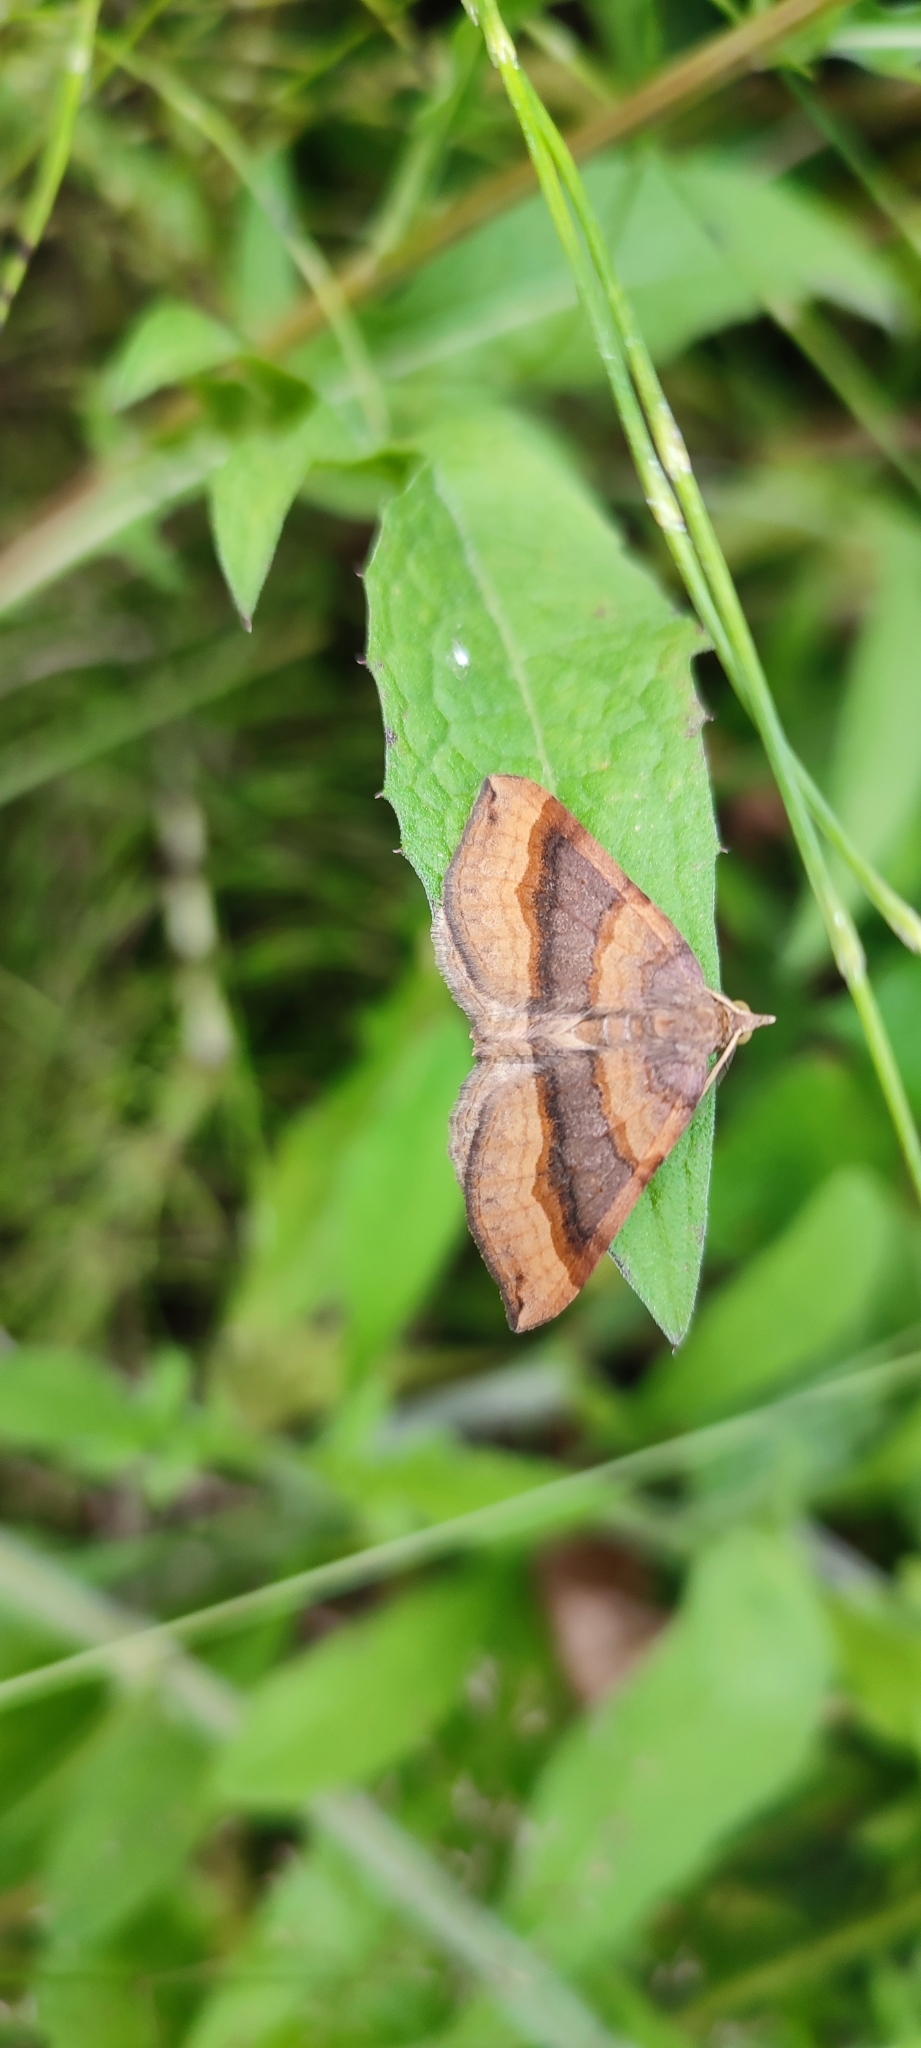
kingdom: Animalia
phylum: Arthropoda
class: Insecta
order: Lepidoptera
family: Geometridae
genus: Scotopteryx
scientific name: Scotopteryx chenopodiata
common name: Shaded broad-bar
